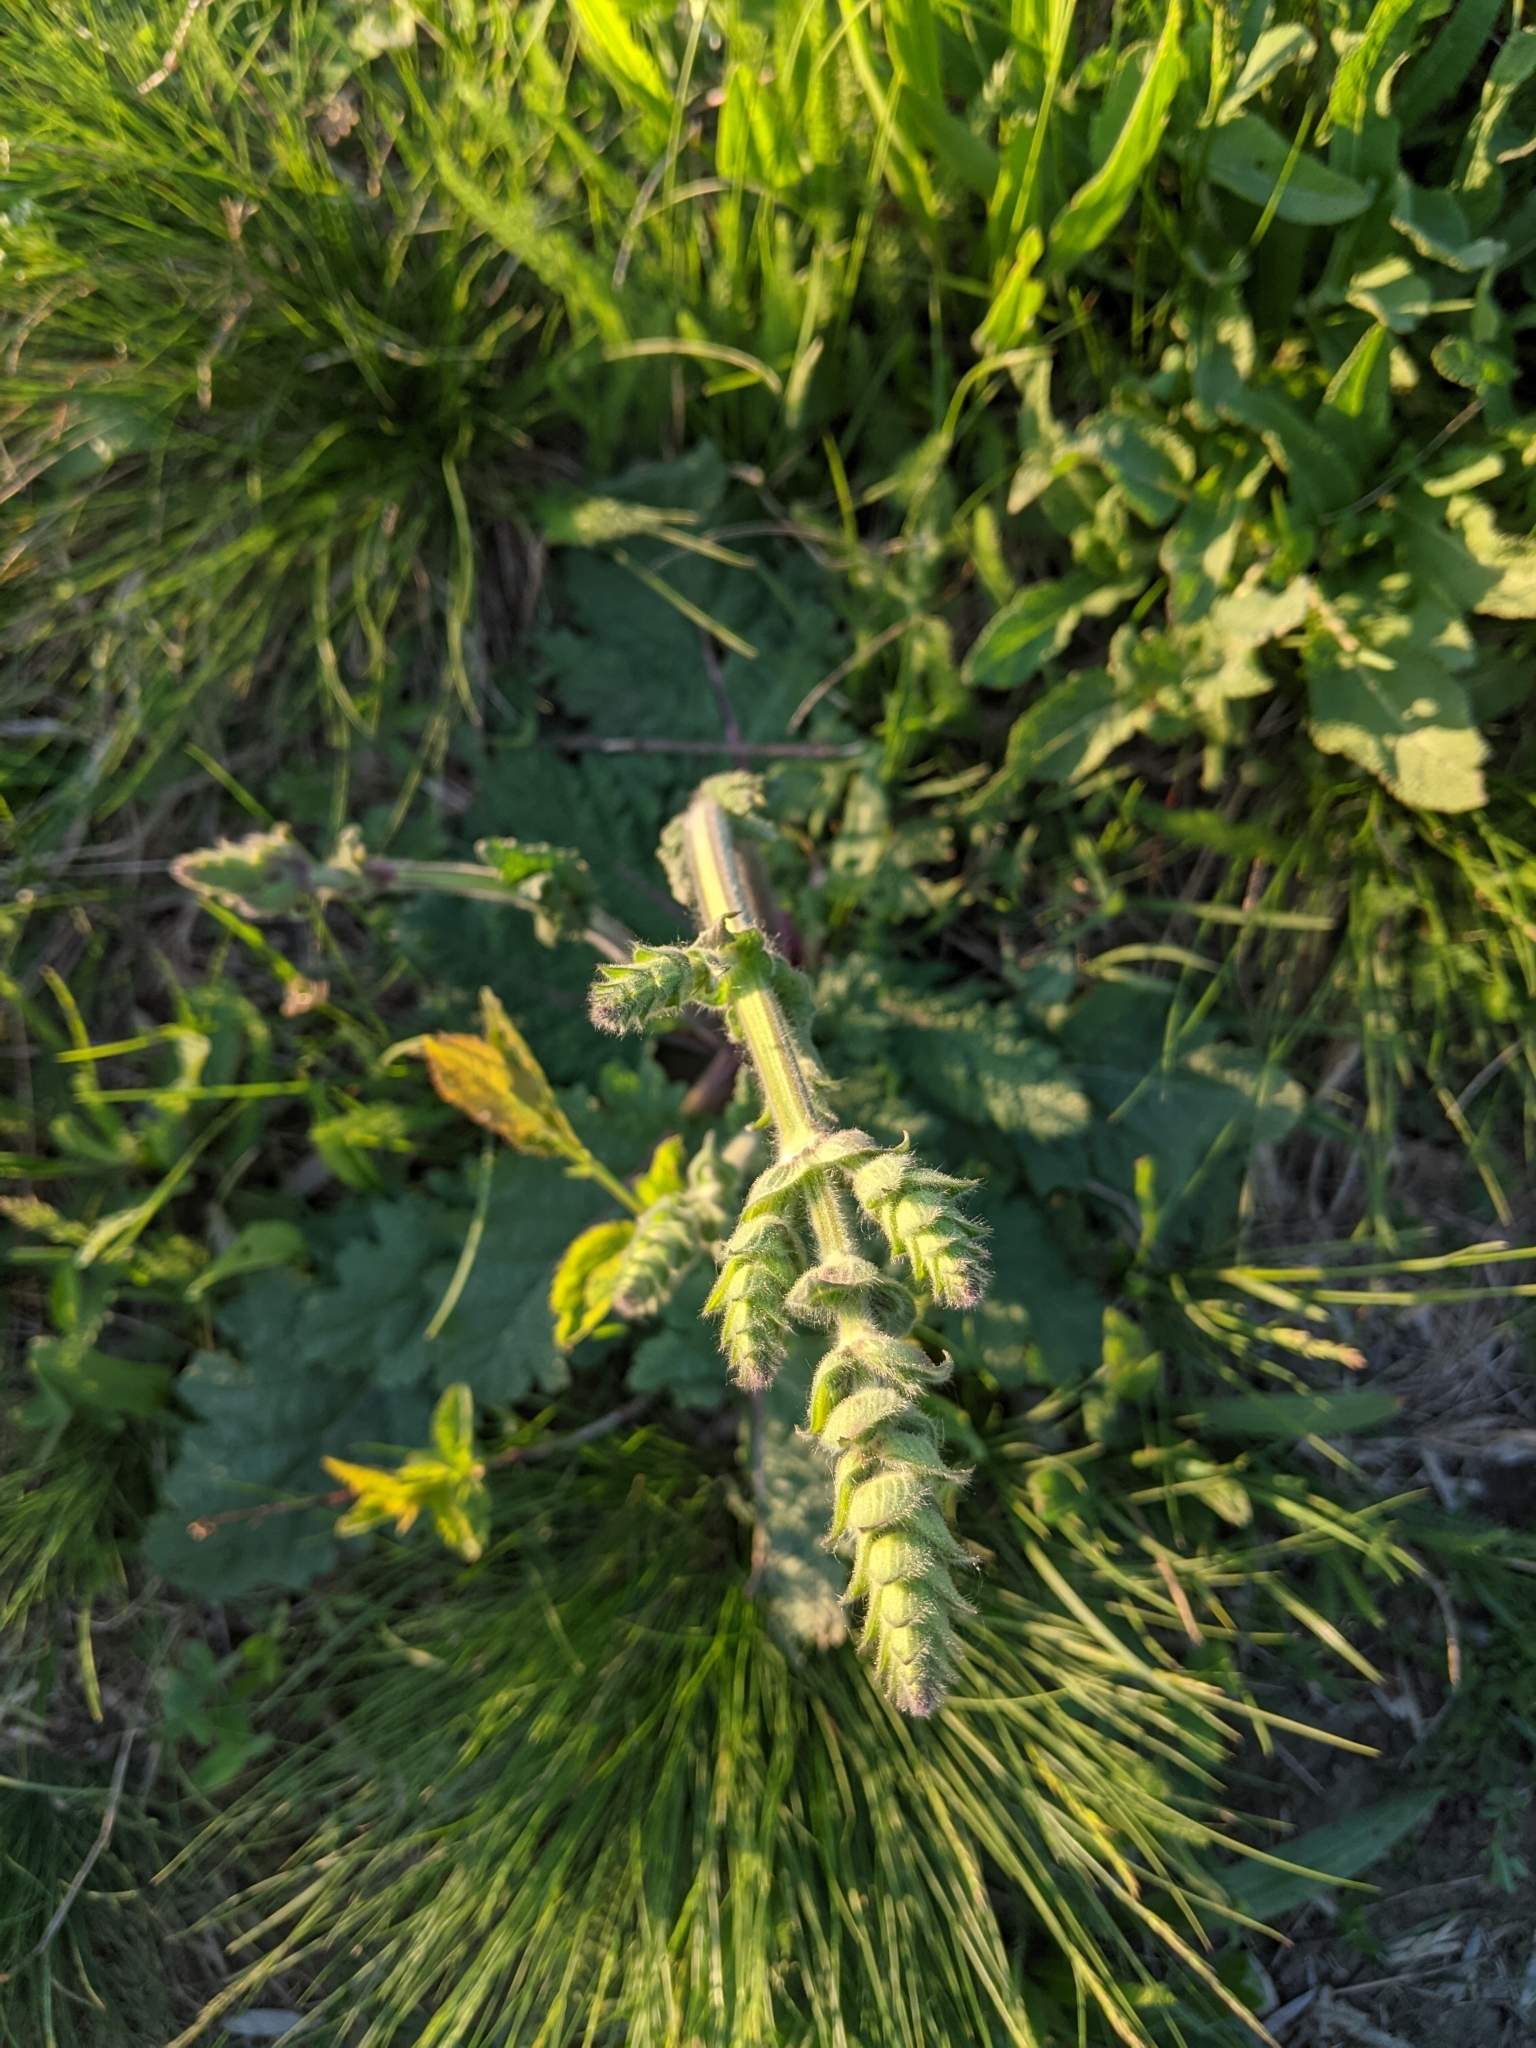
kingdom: Plantae
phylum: Tracheophyta
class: Magnoliopsida
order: Lamiales
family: Lamiaceae
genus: Salvia
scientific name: Salvia austriaca
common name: Austrian sage
